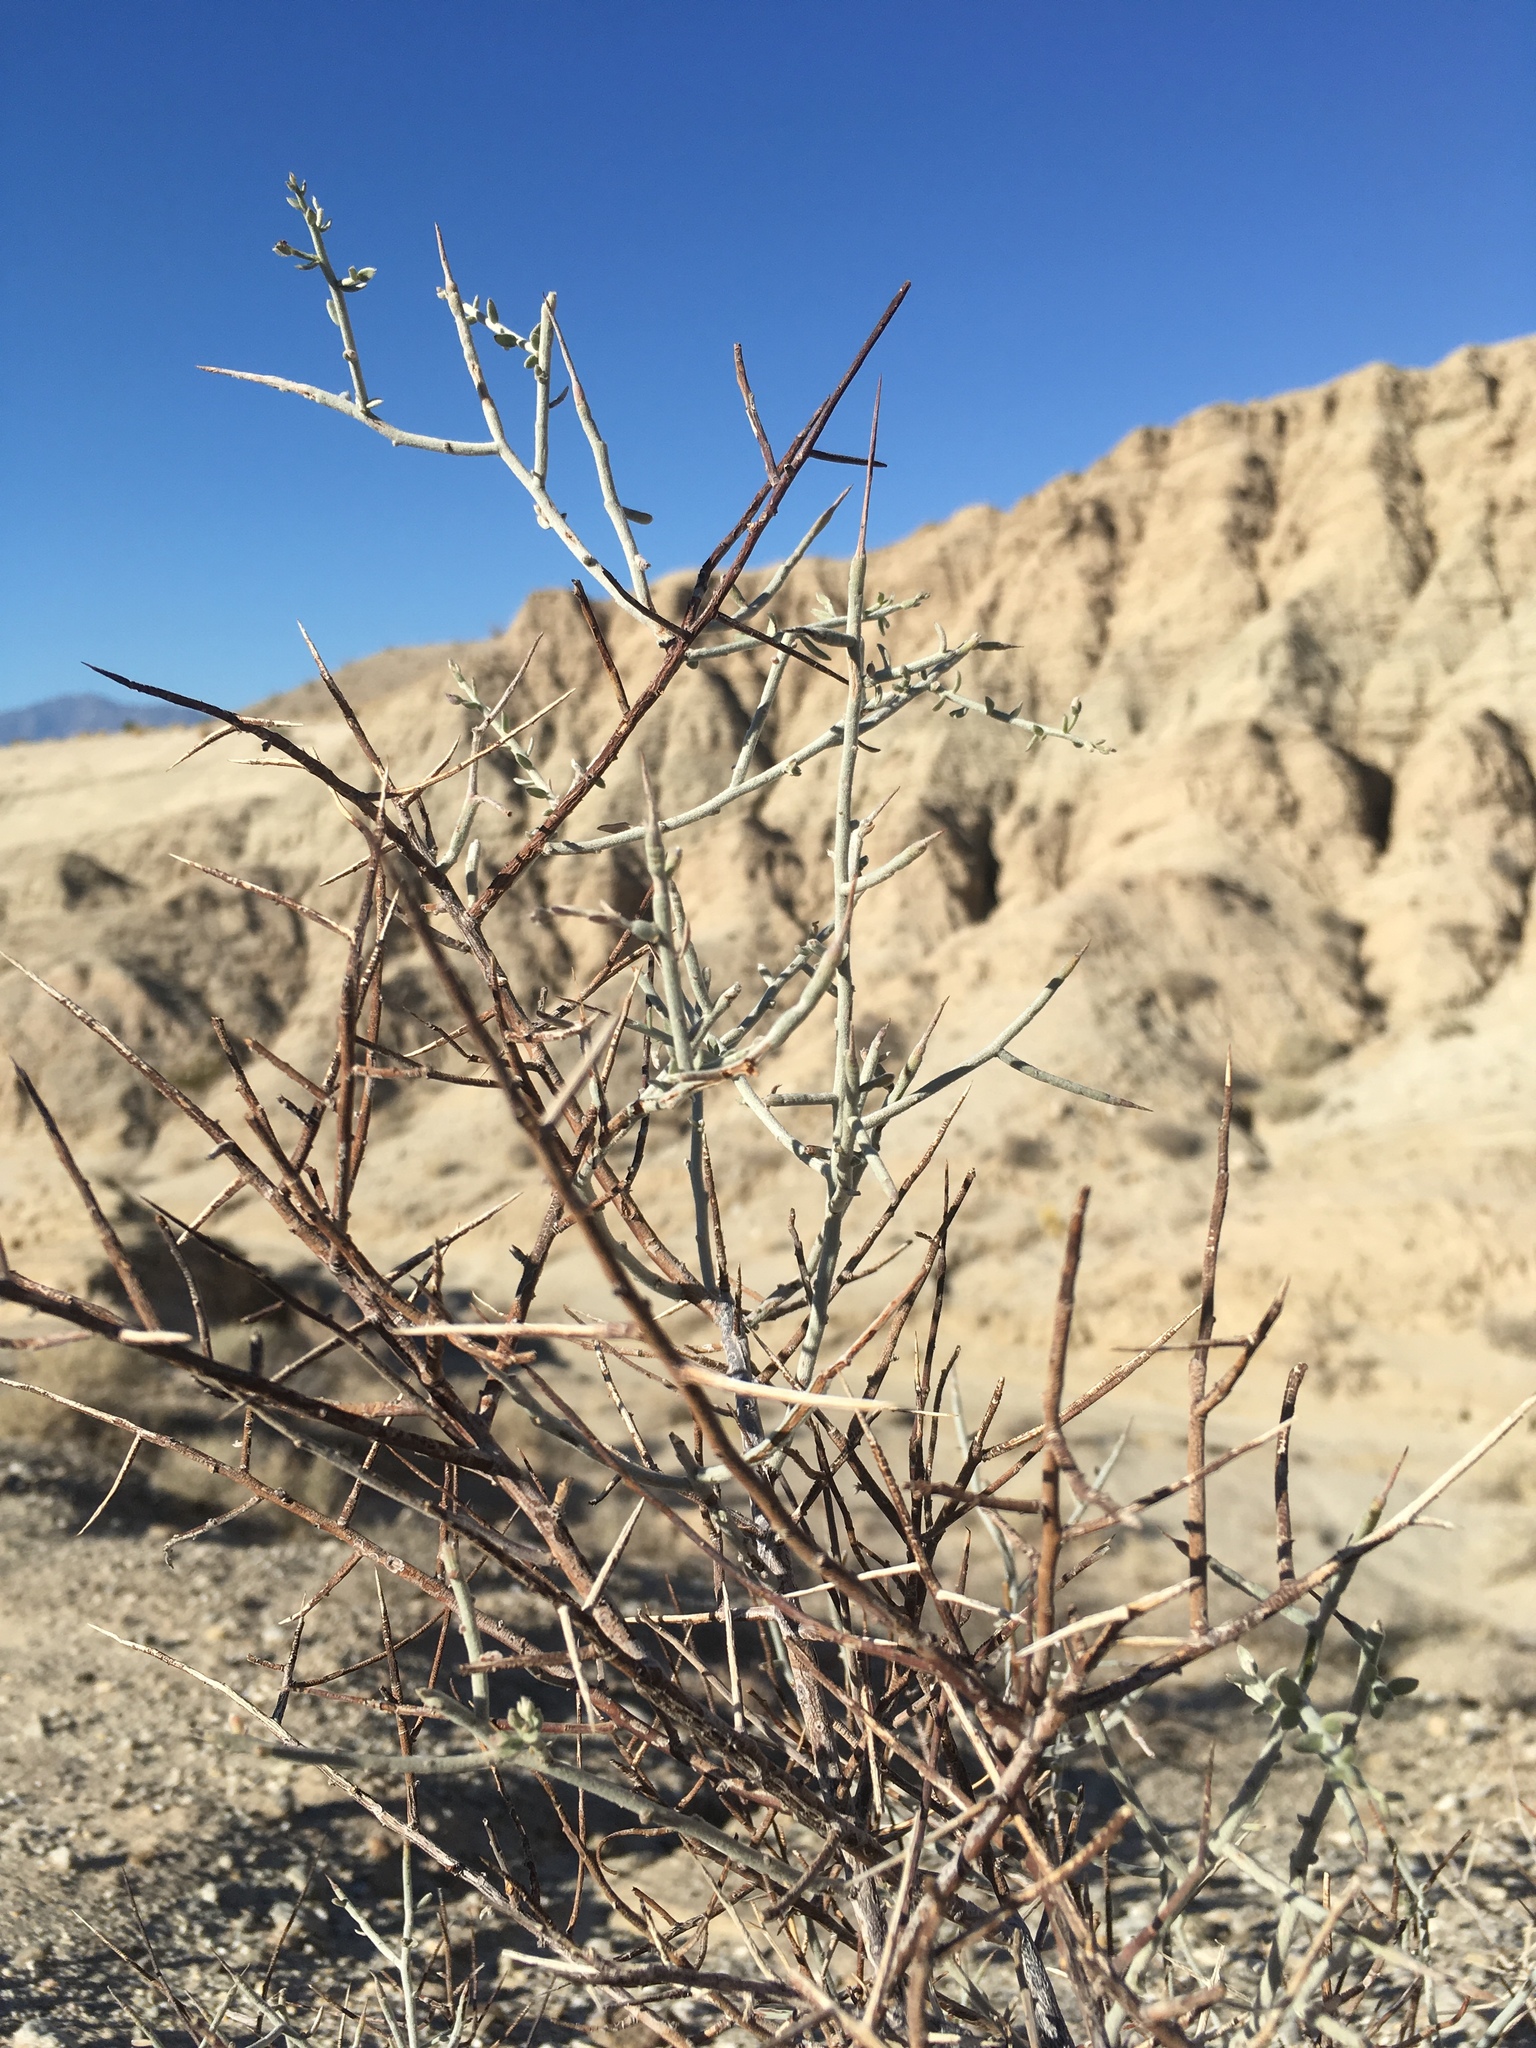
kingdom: Plantae
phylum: Tracheophyta
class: Magnoliopsida
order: Zygophyllales
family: Krameriaceae
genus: Krameria
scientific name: Krameria bicolor
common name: White ratany
